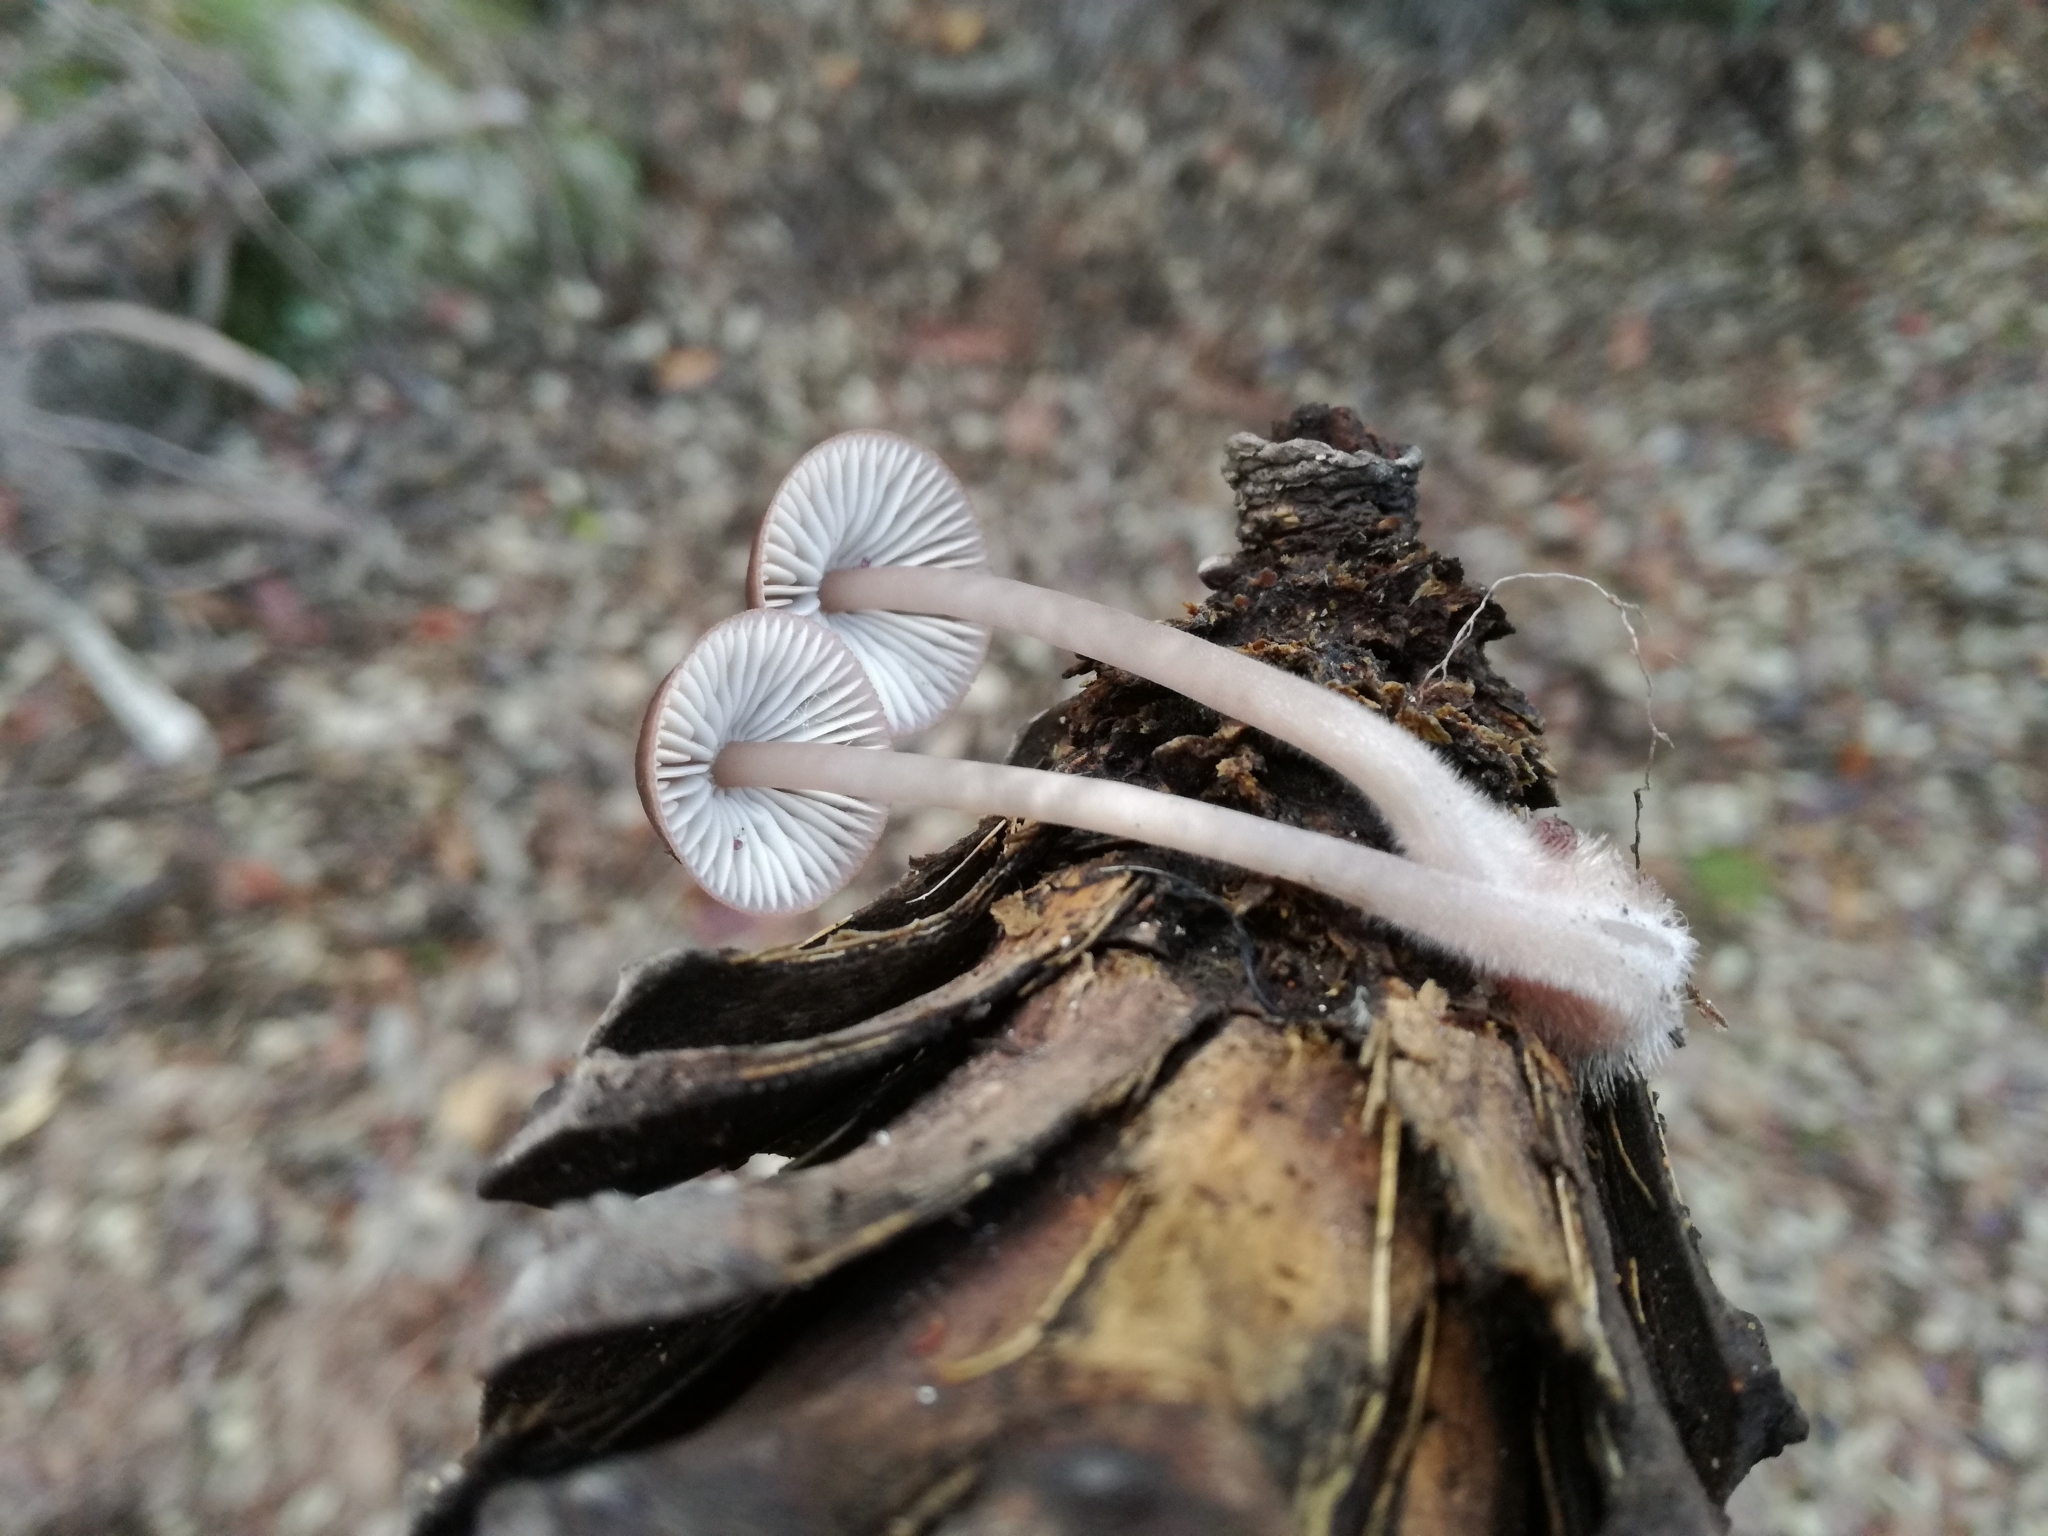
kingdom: Fungi
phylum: Basidiomycota
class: Agaricomycetes
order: Agaricales
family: Mycenaceae
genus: Mycena
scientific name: Mycena seynii
